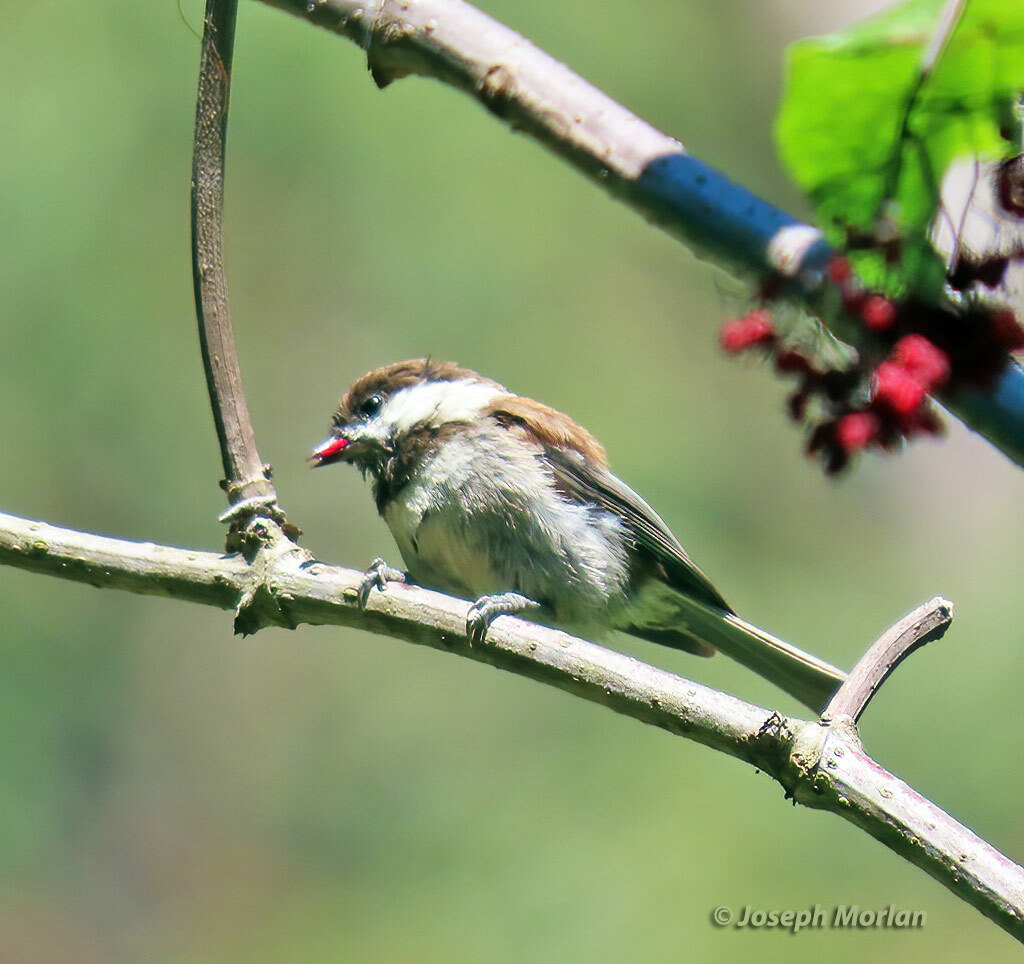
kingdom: Animalia
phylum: Chordata
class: Aves
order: Passeriformes
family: Paridae
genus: Poecile
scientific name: Poecile rufescens
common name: Chestnut-backed chickadee
